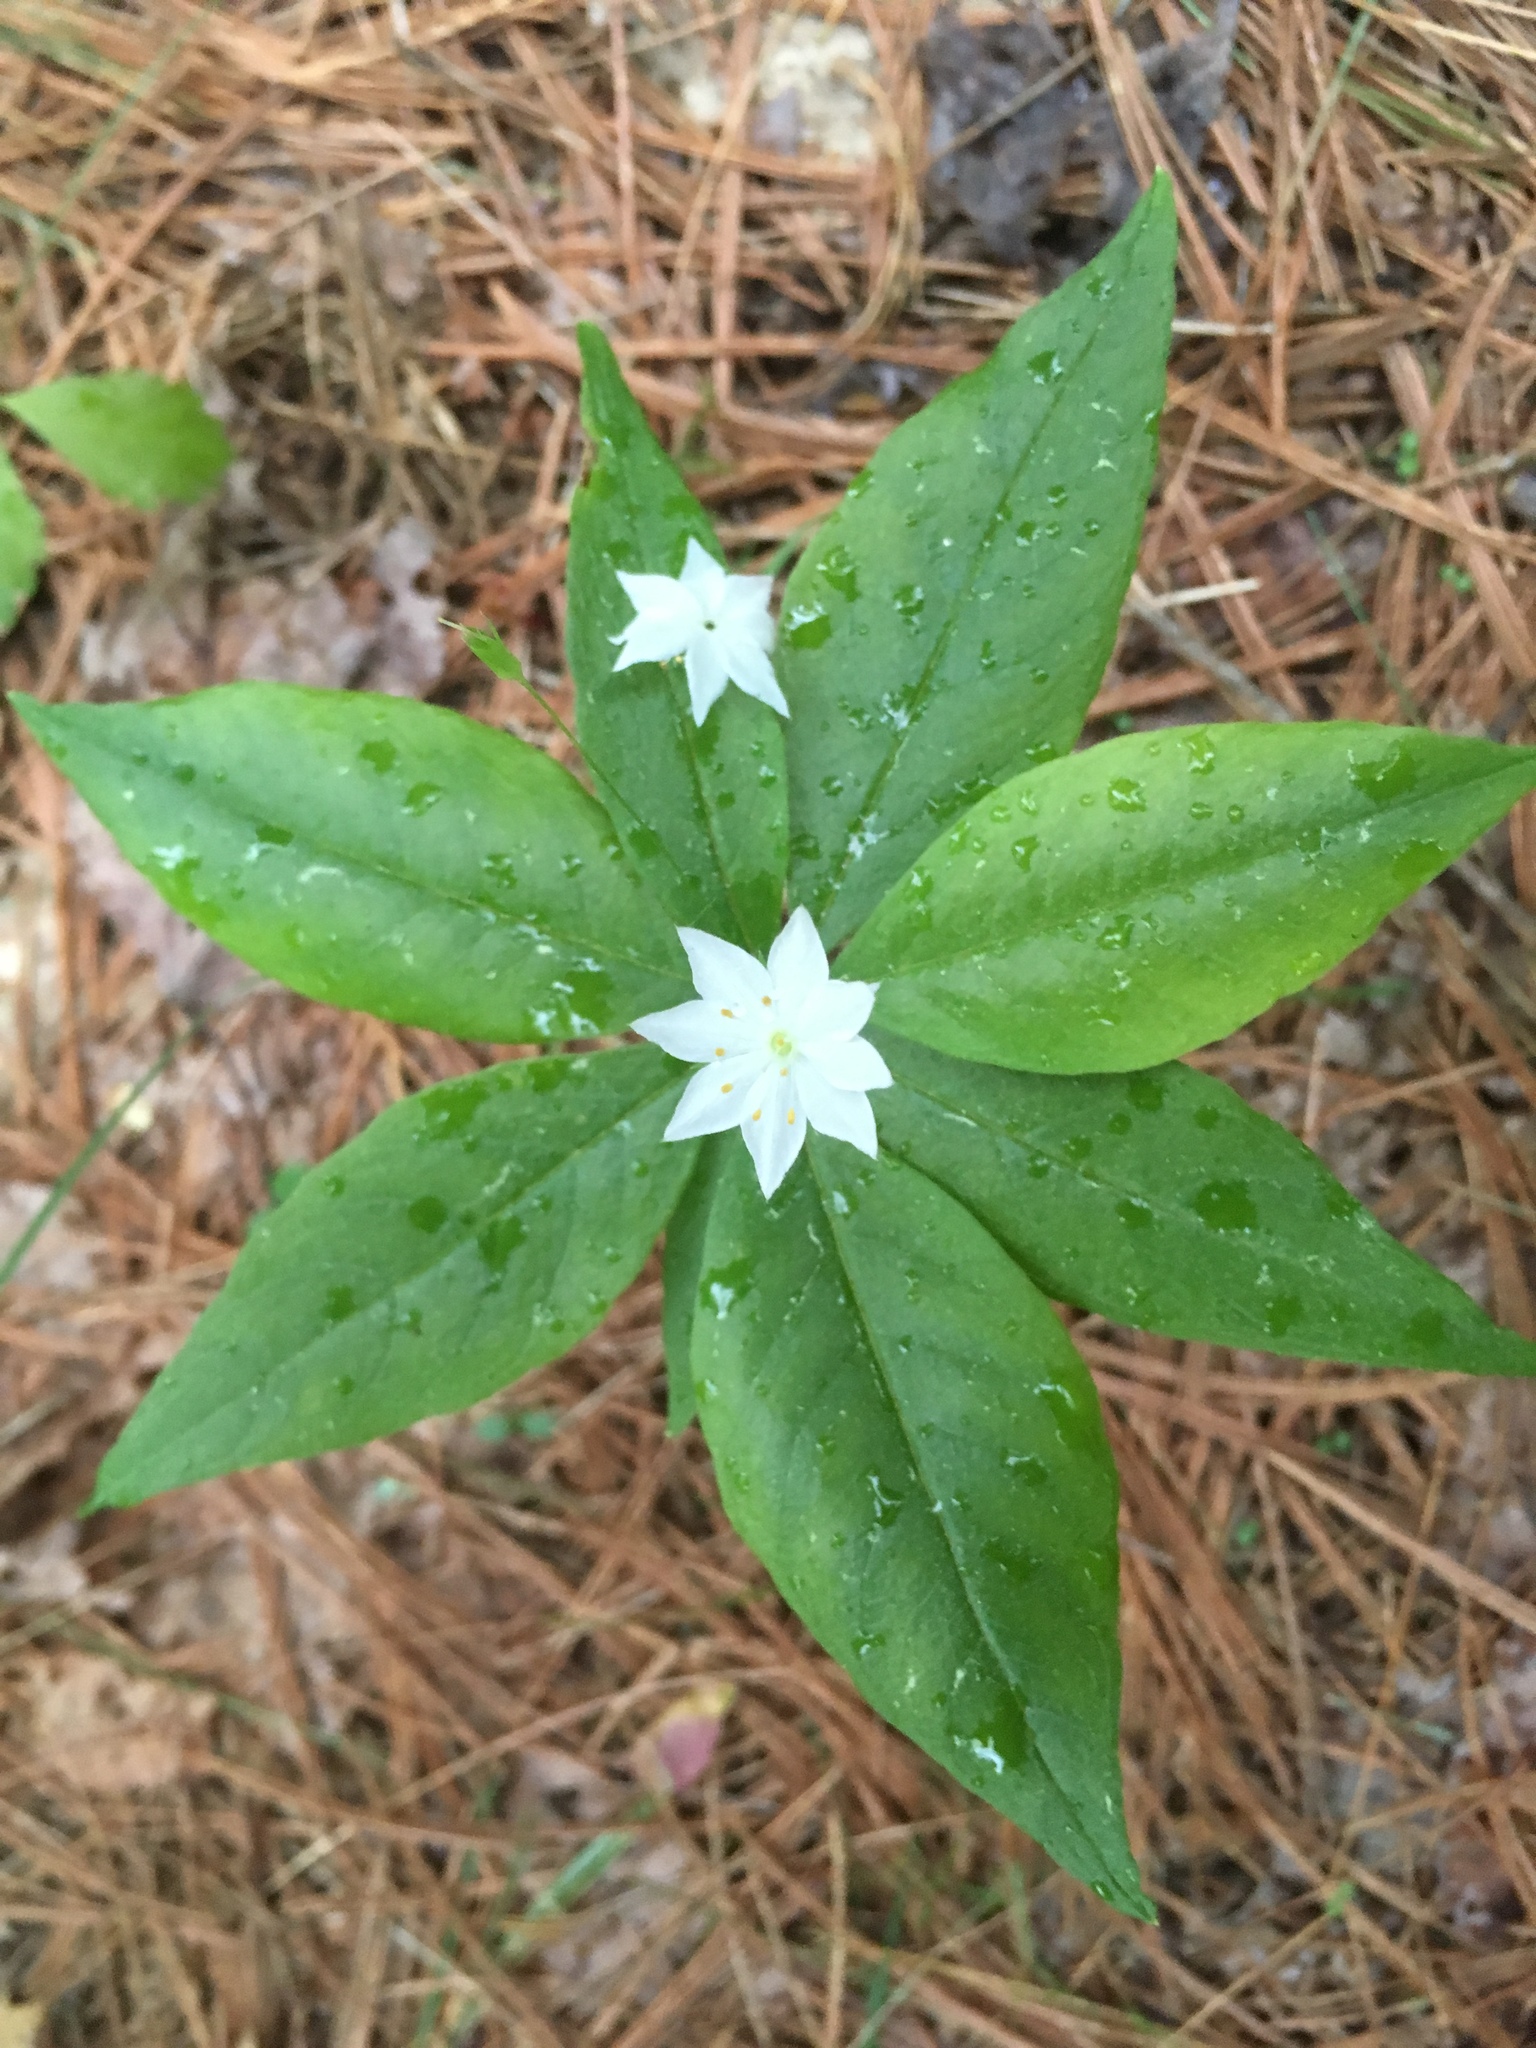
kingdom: Plantae
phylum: Tracheophyta
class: Magnoliopsida
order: Ericales
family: Primulaceae
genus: Lysimachia
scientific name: Lysimachia borealis
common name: American starflower
